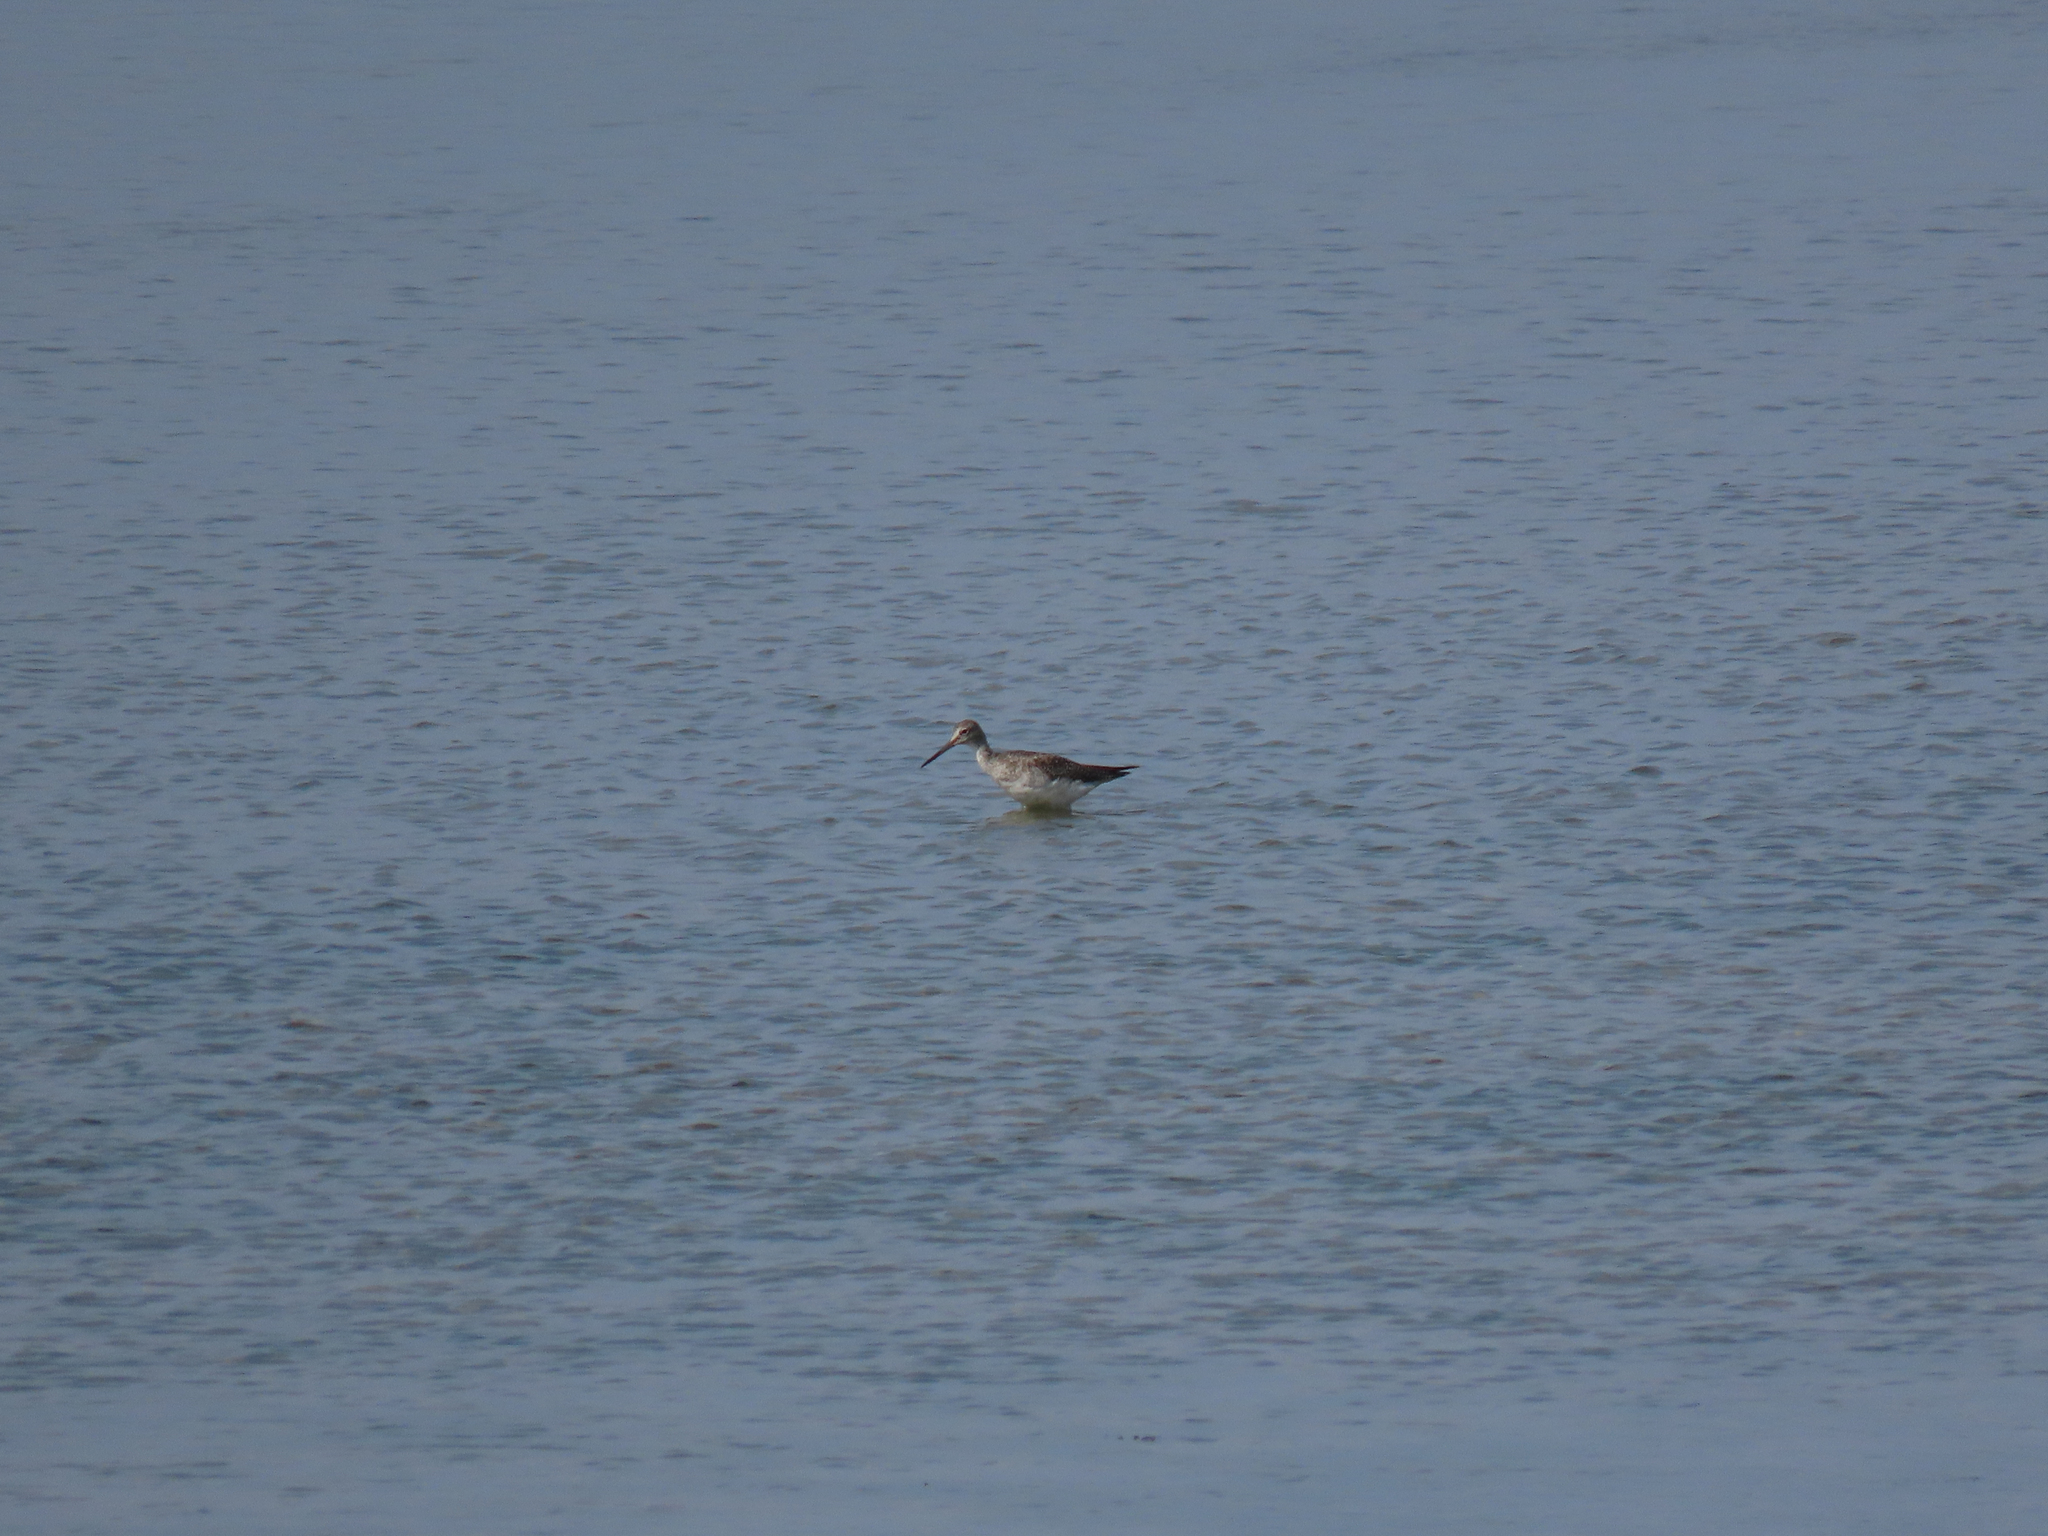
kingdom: Animalia
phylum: Chordata
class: Aves
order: Charadriiformes
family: Scolopacidae
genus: Tringa
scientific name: Tringa melanoleuca
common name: Greater yellowlegs
